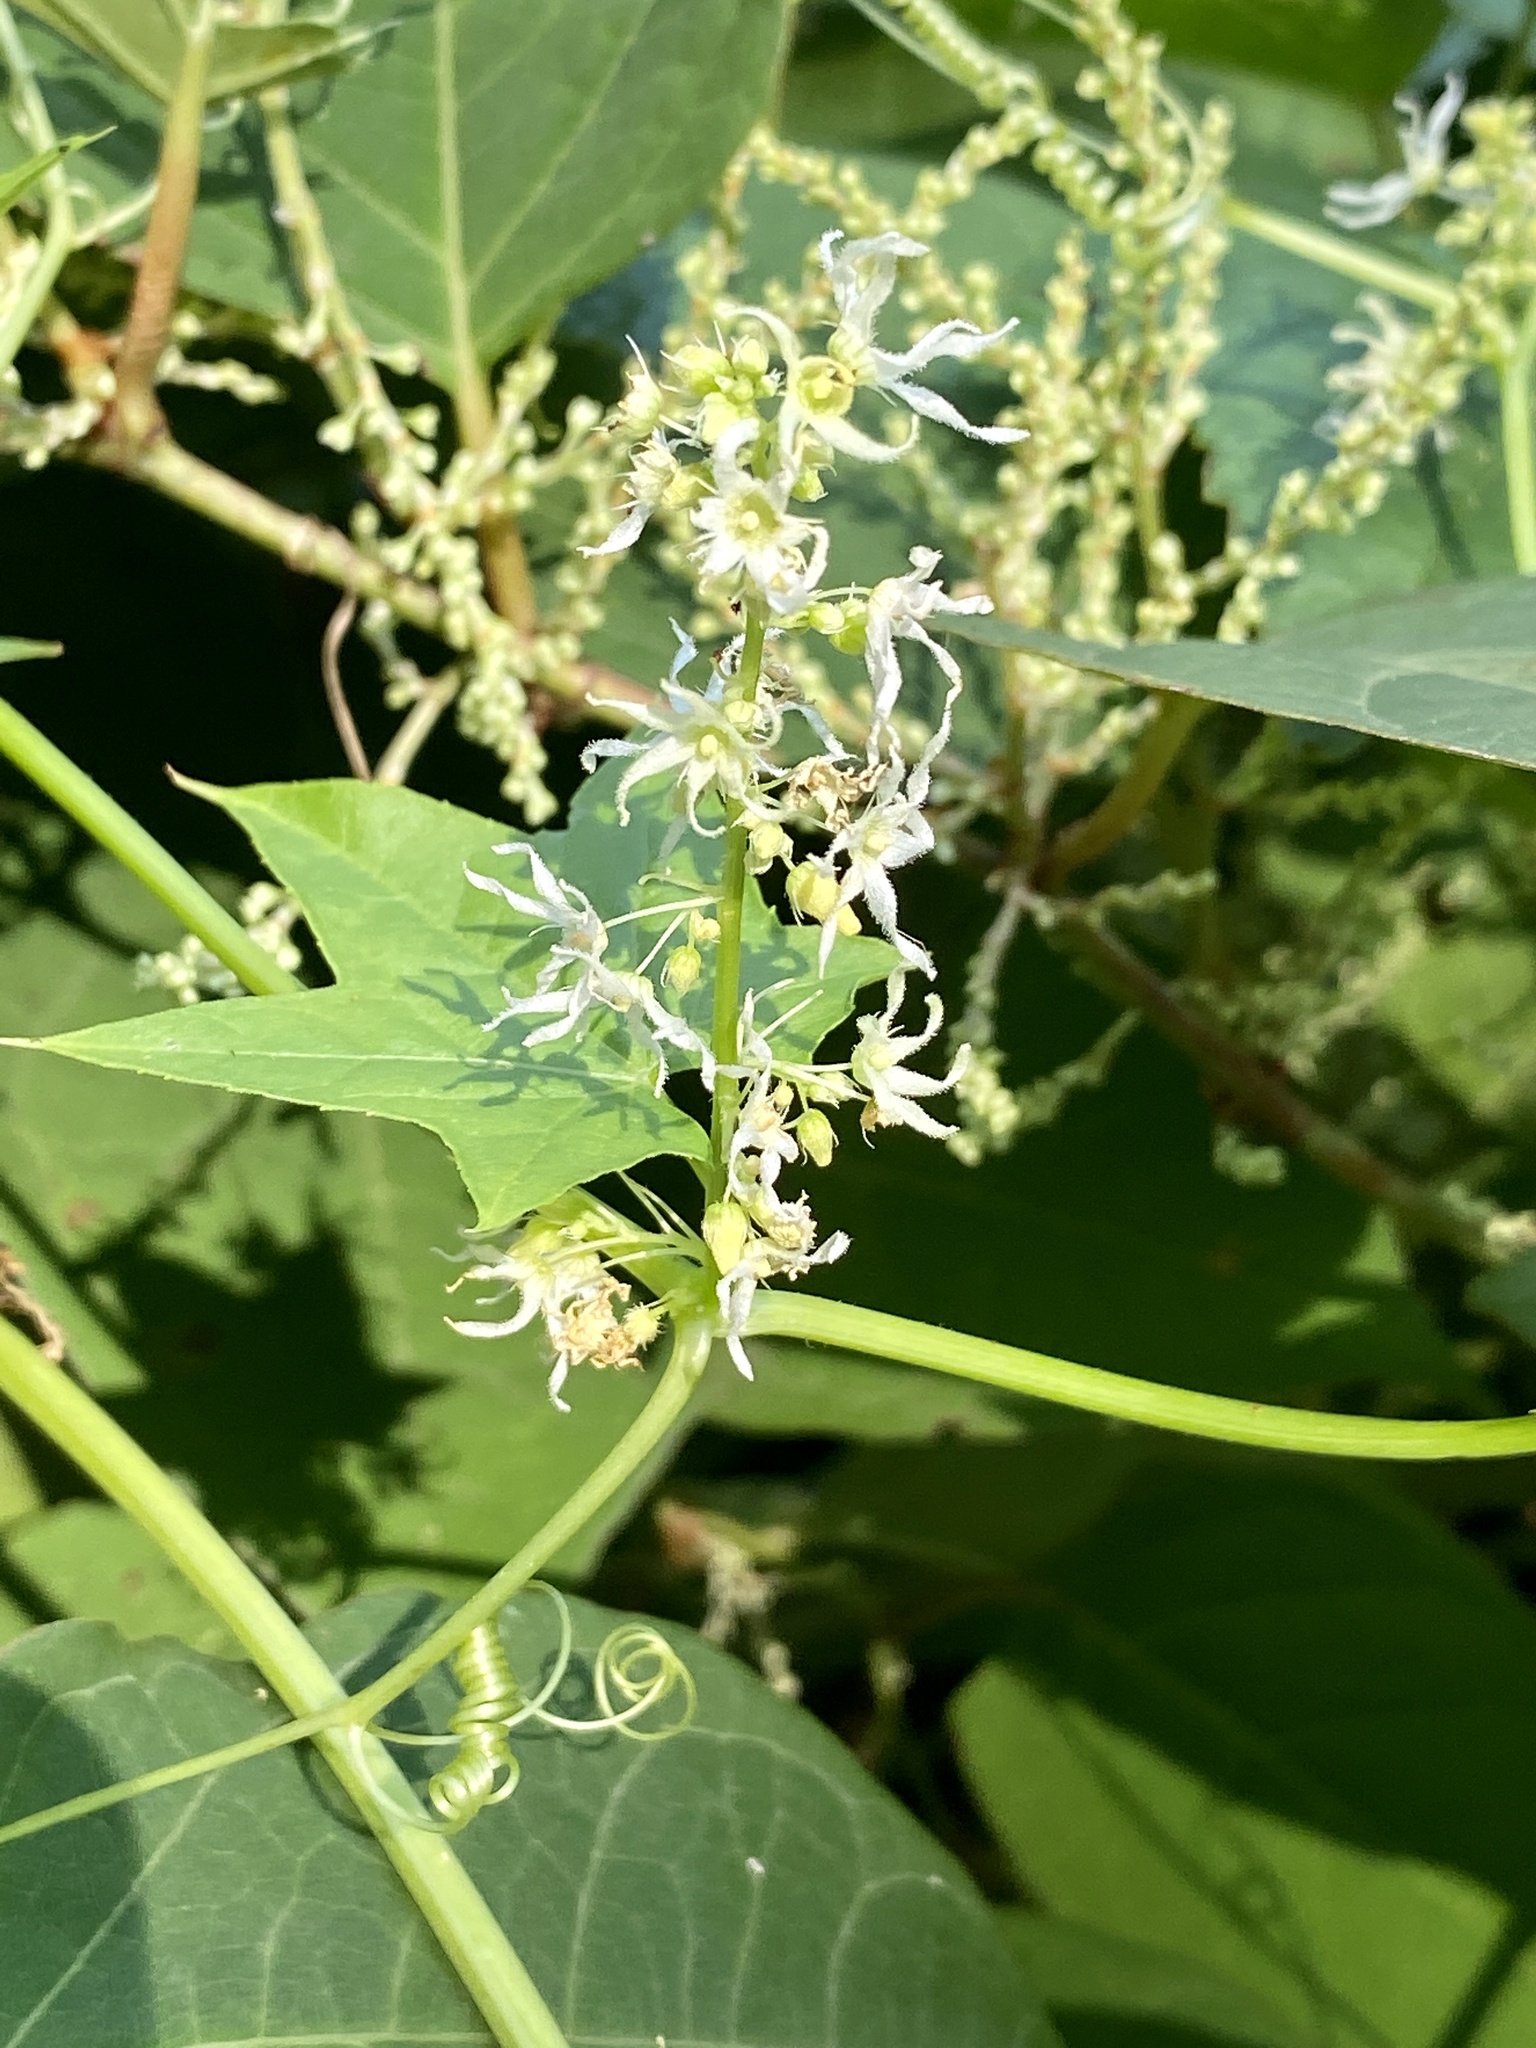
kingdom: Plantae
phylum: Tracheophyta
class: Magnoliopsida
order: Cucurbitales
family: Cucurbitaceae
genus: Echinocystis
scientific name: Echinocystis lobata
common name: Wild cucumber
